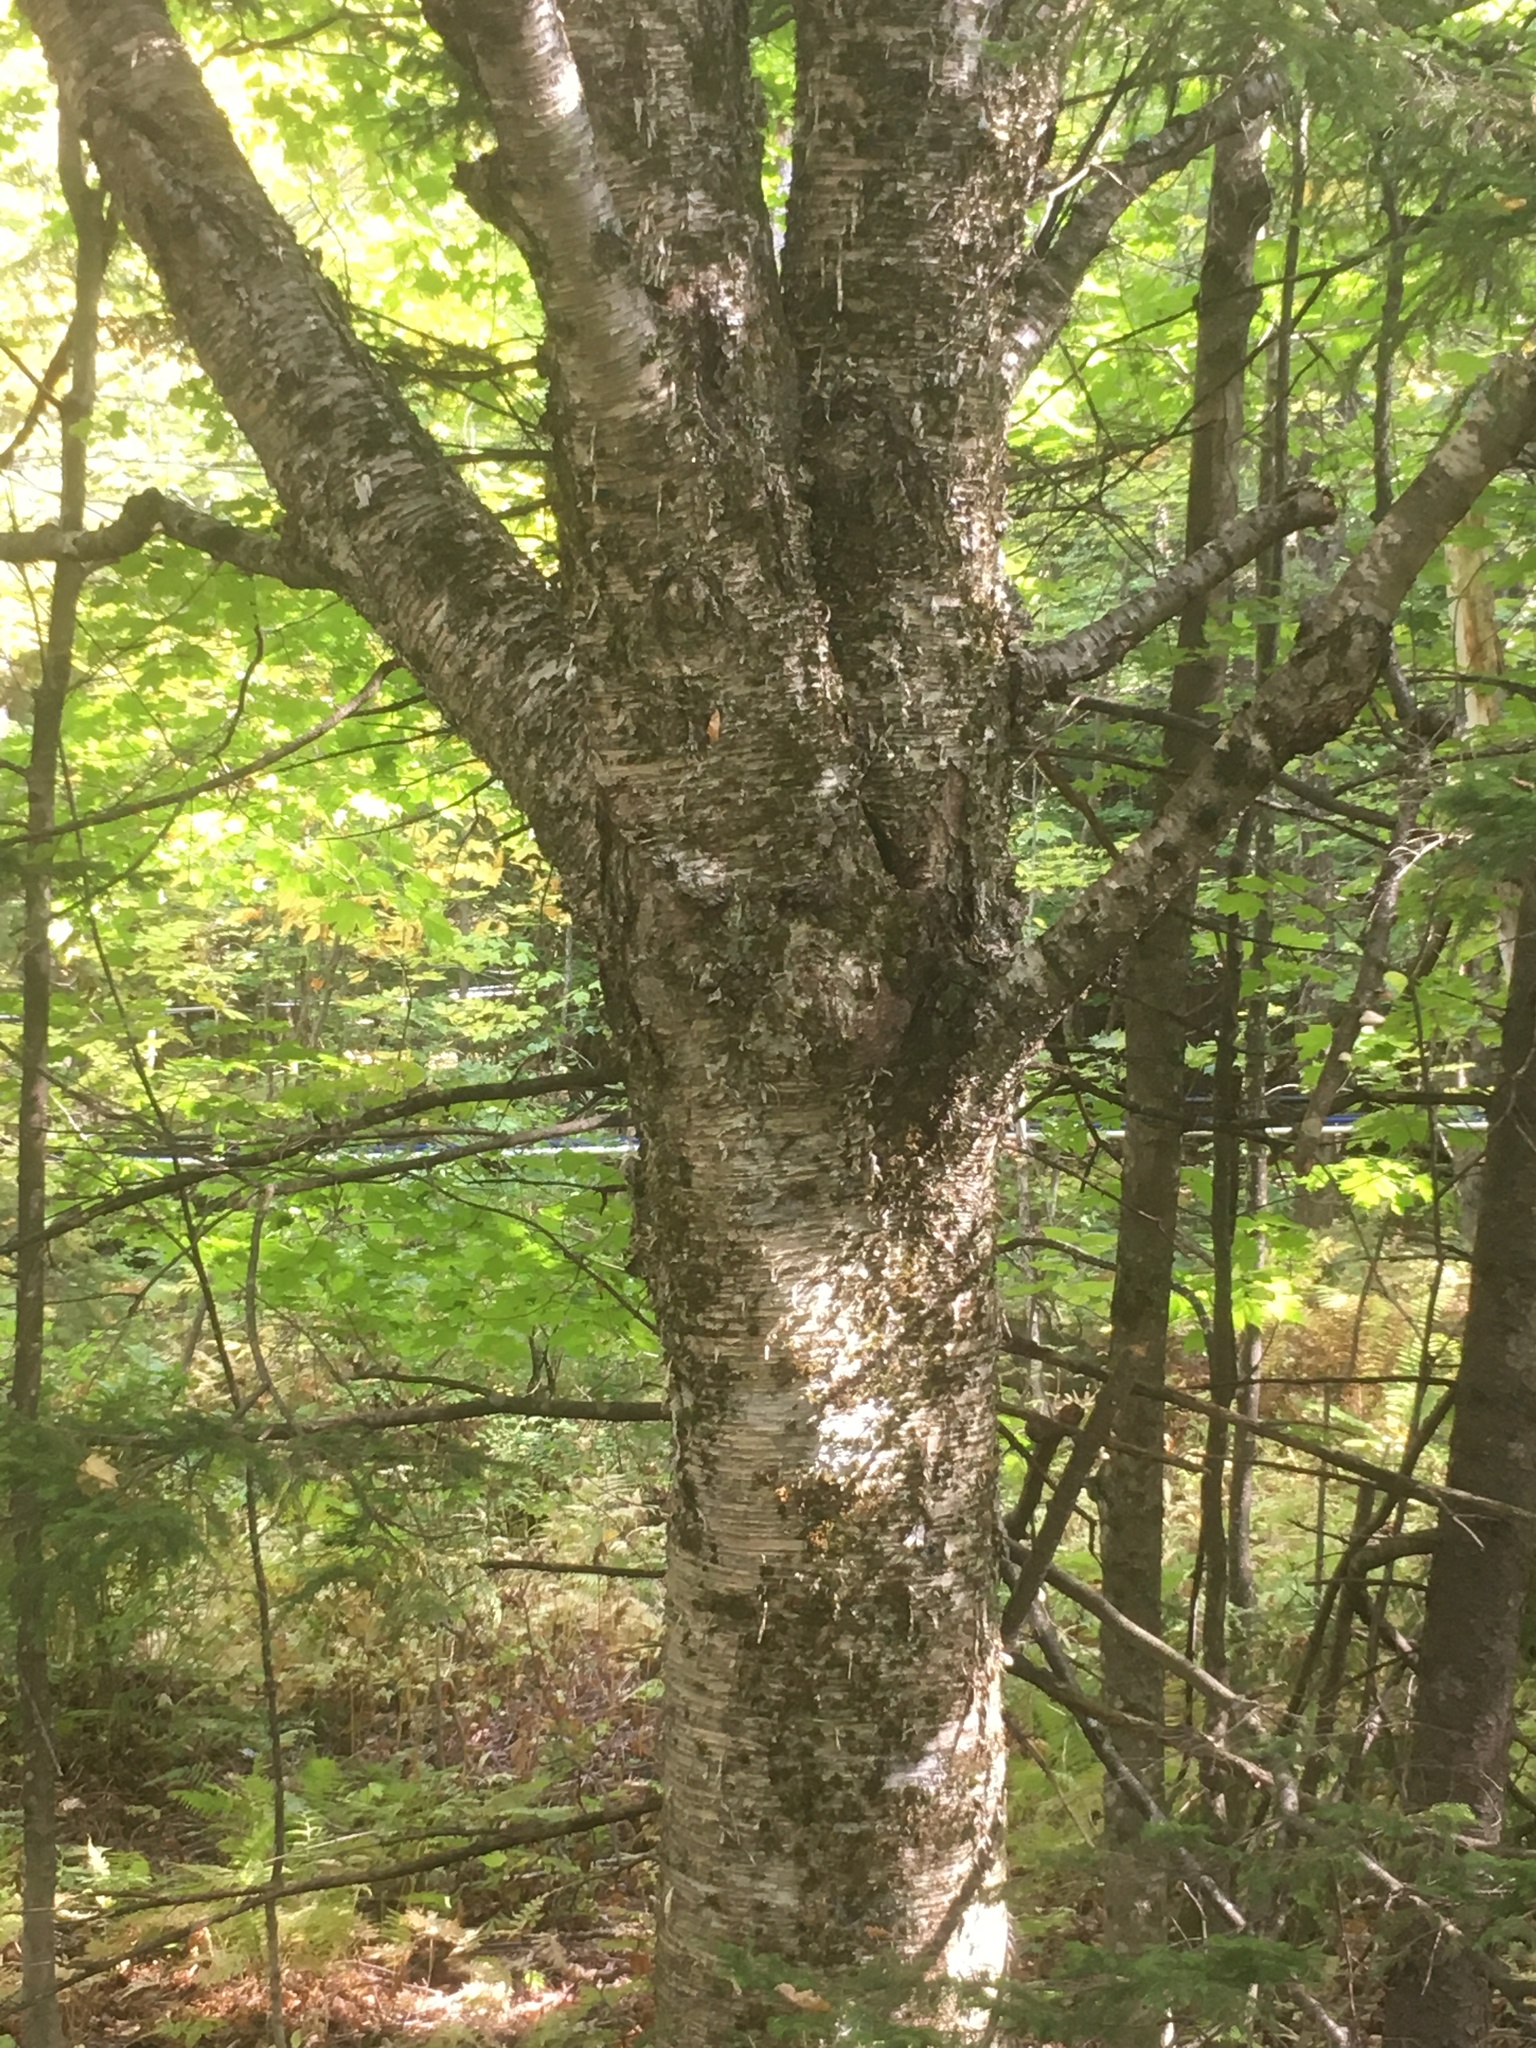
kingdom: Plantae
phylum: Tracheophyta
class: Magnoliopsida
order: Fagales
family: Betulaceae
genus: Betula
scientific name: Betula alleghaniensis
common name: Yellow birch
